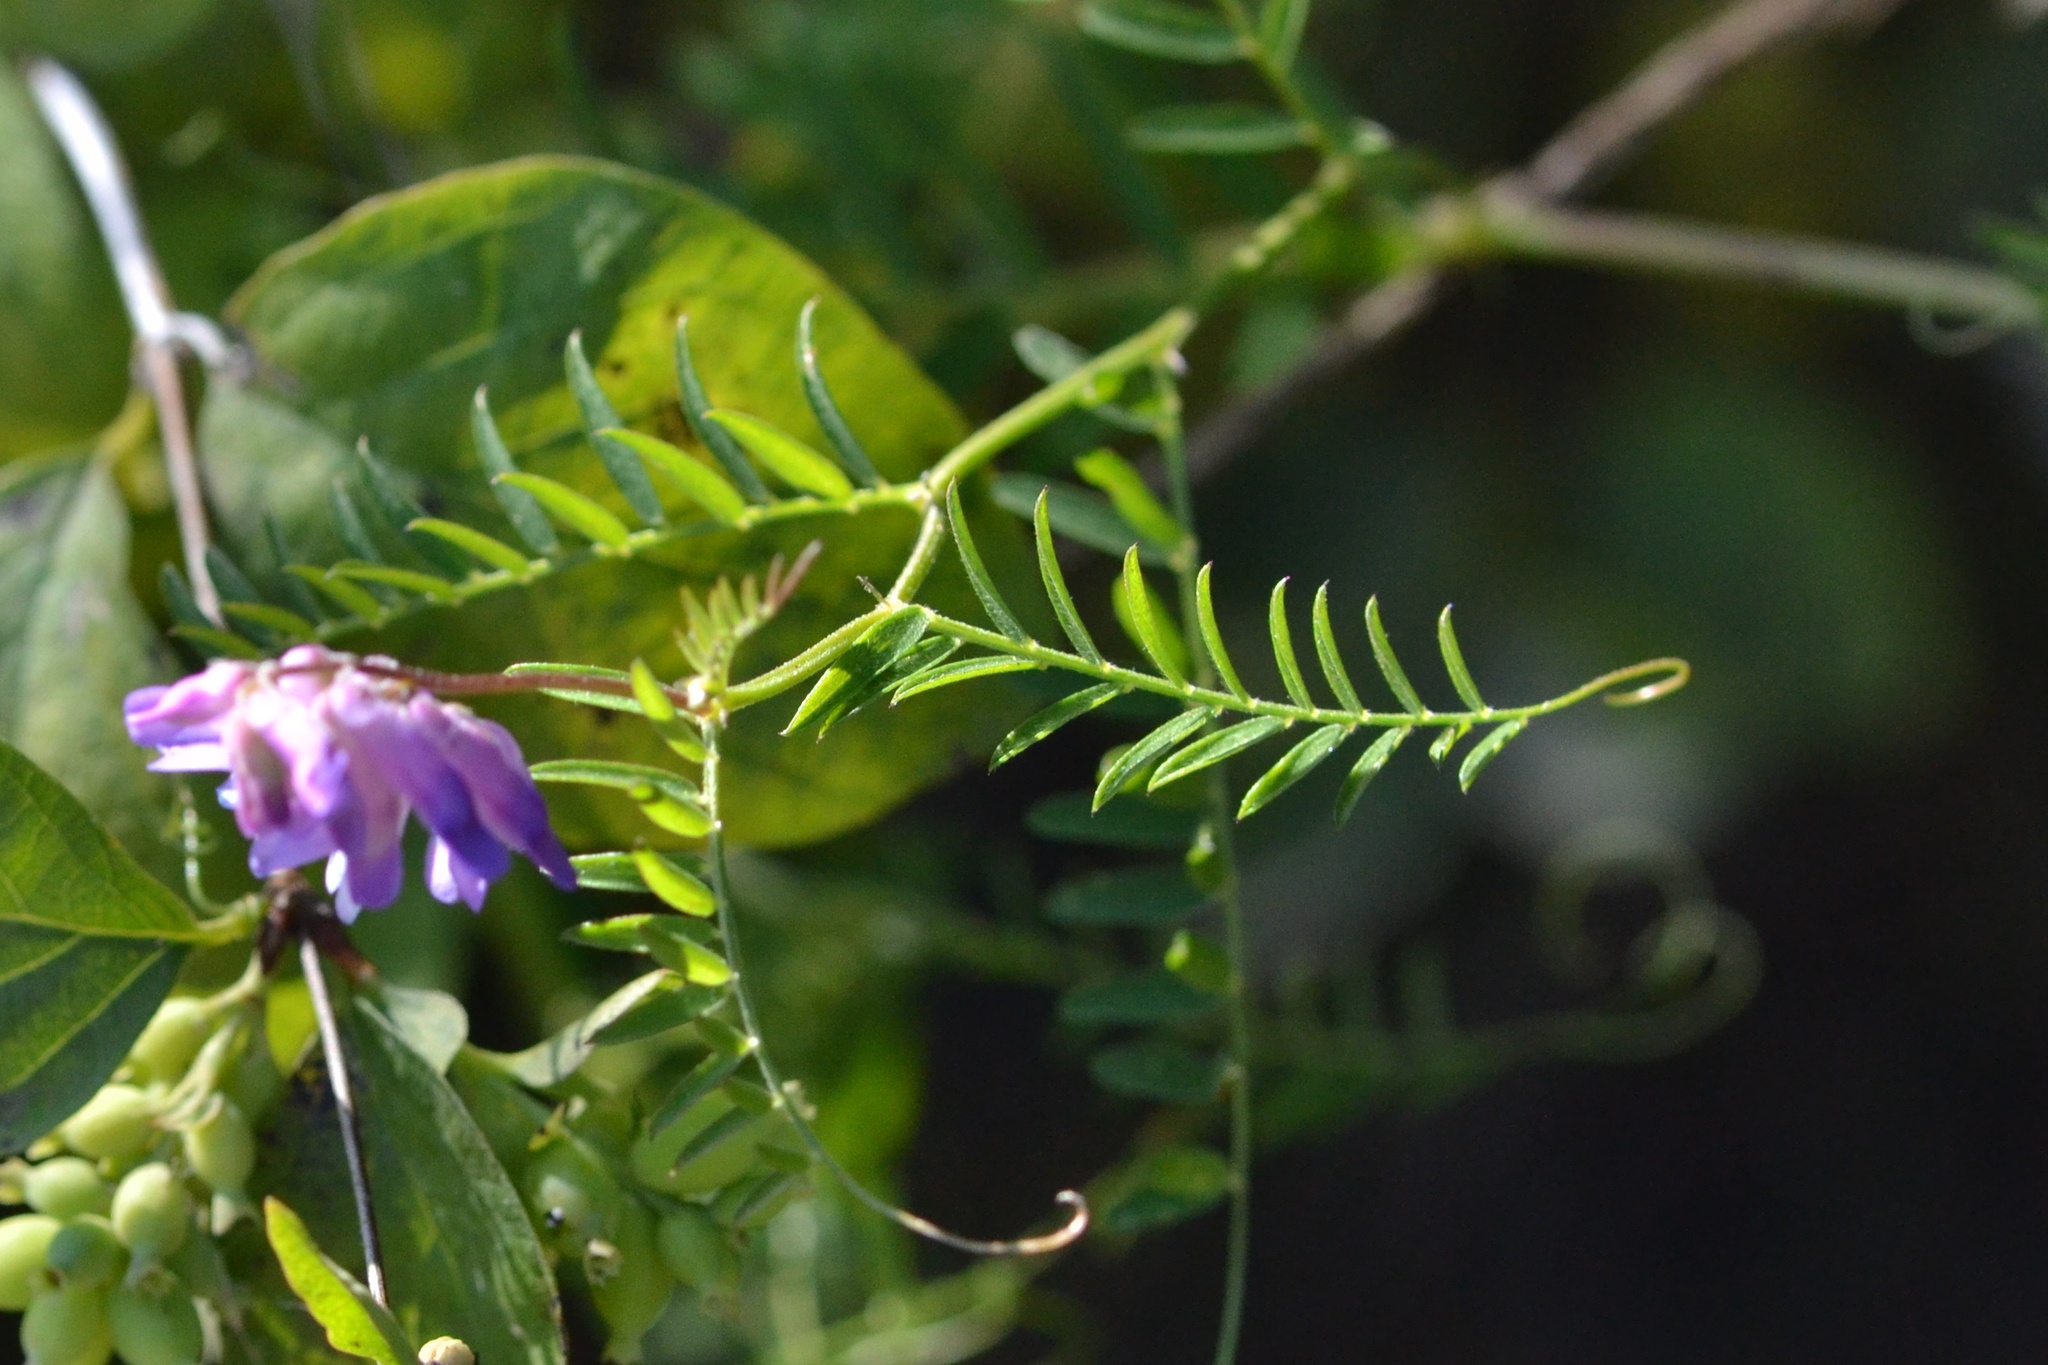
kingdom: Plantae
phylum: Tracheophyta
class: Magnoliopsida
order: Fabales
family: Fabaceae
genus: Vicia
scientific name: Vicia cracca
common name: Bird vetch
